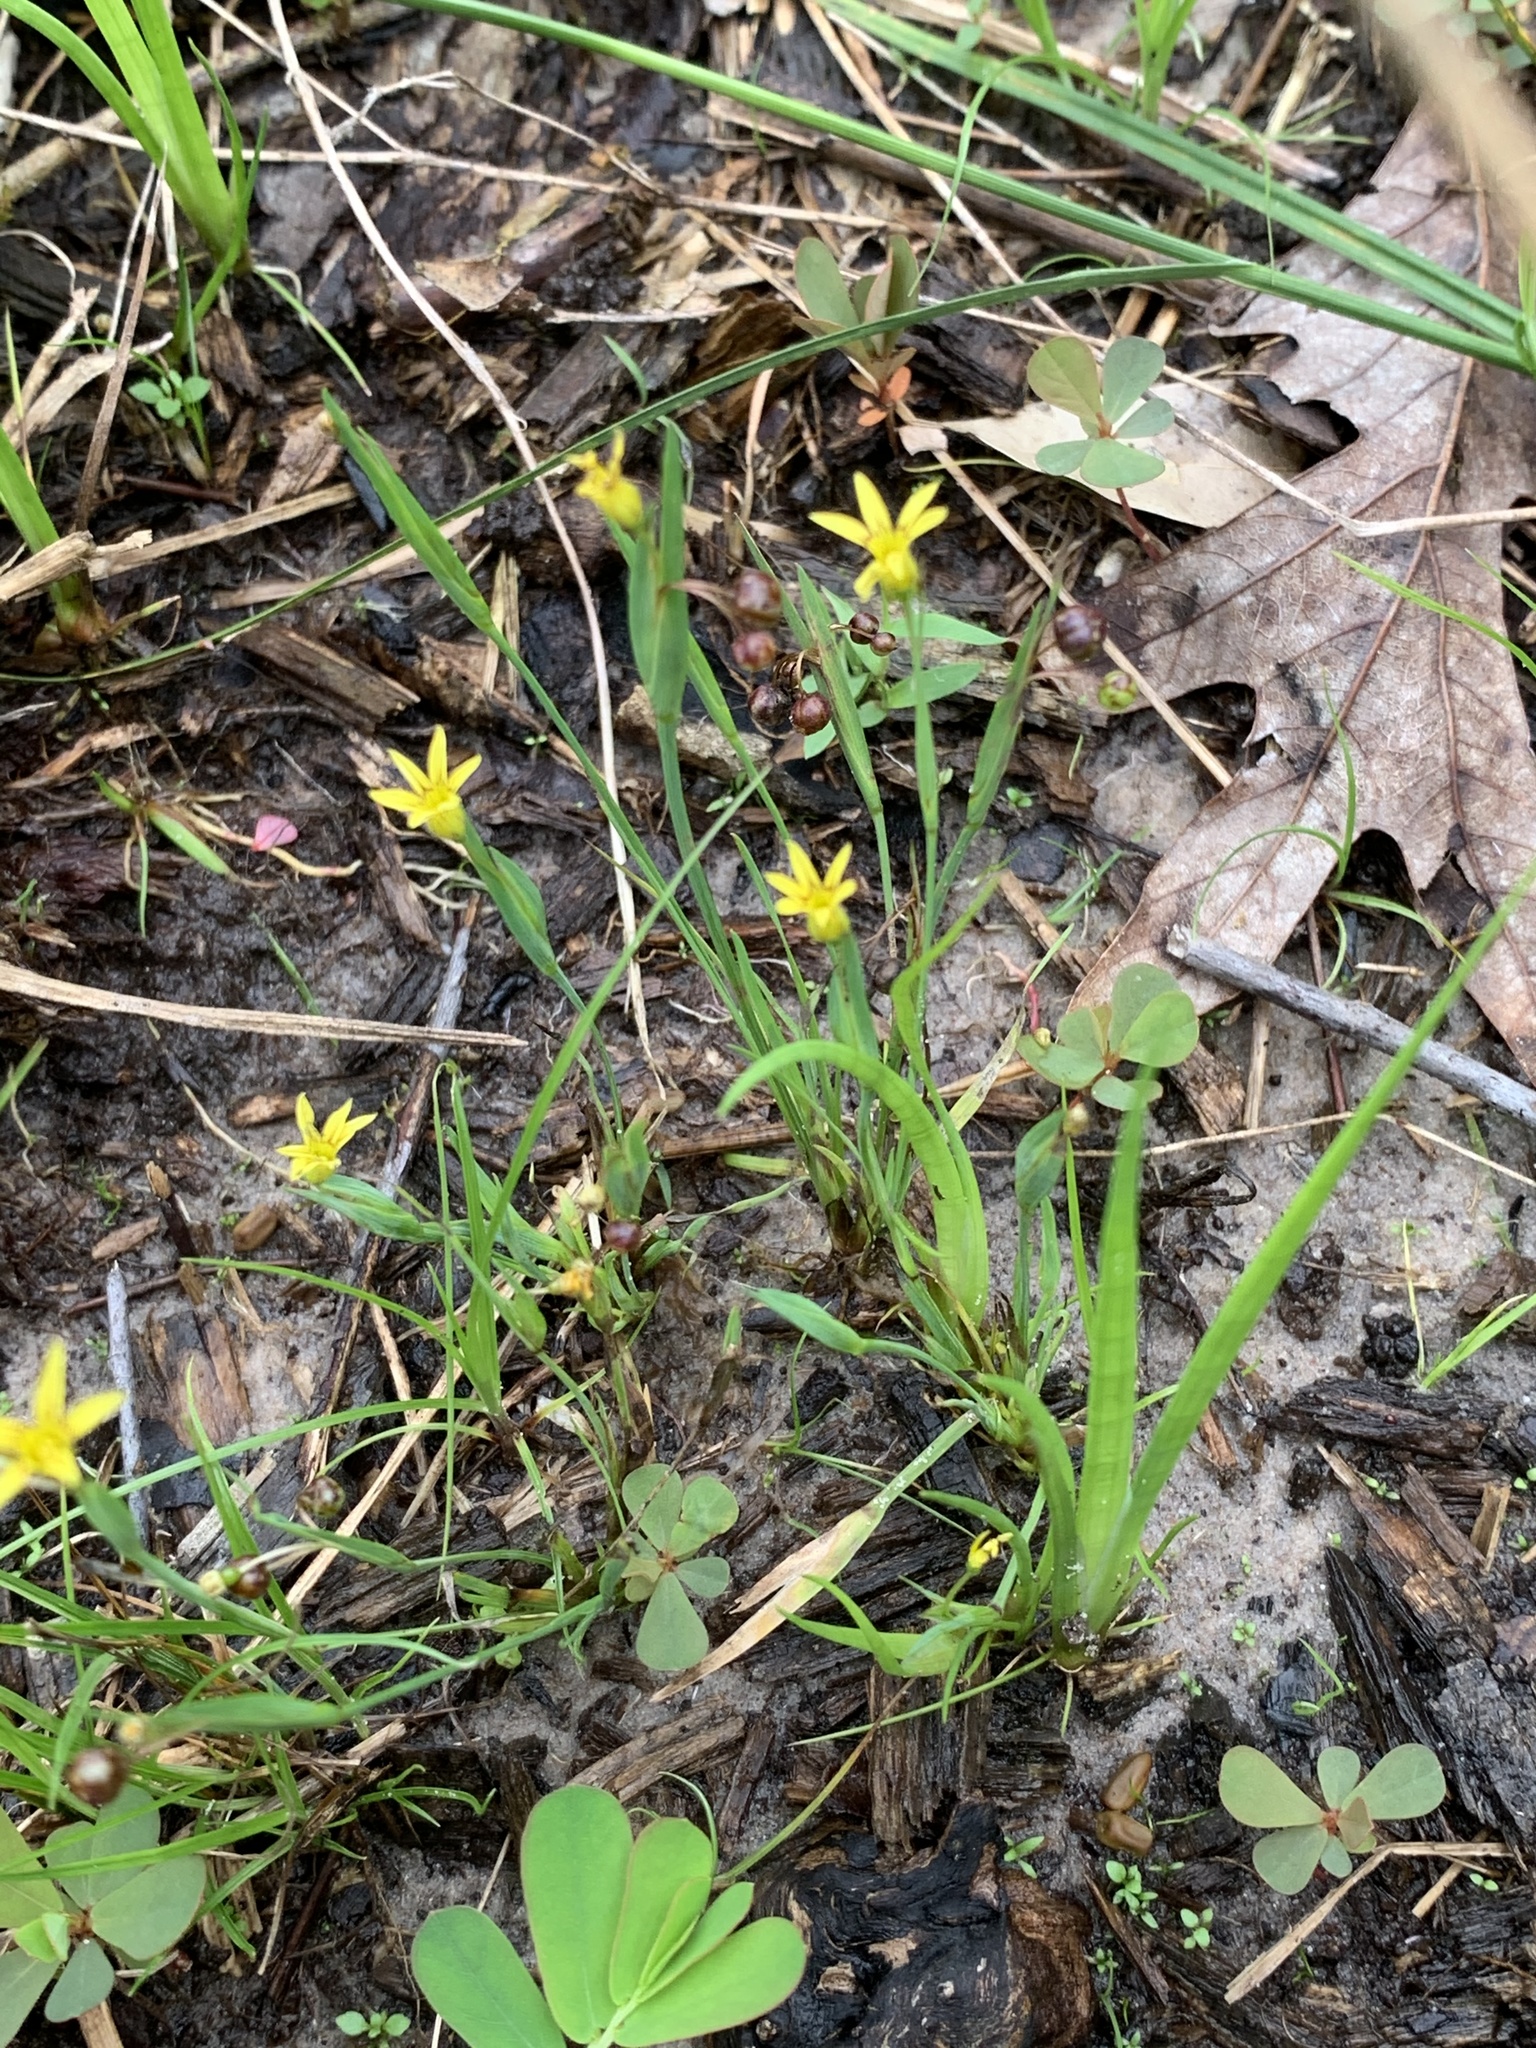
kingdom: Plantae
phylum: Tracheophyta
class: Liliopsida
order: Asparagales
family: Iridaceae
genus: Sisyrinchium
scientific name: Sisyrinchium micranthum
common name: Bermuda pigroot
